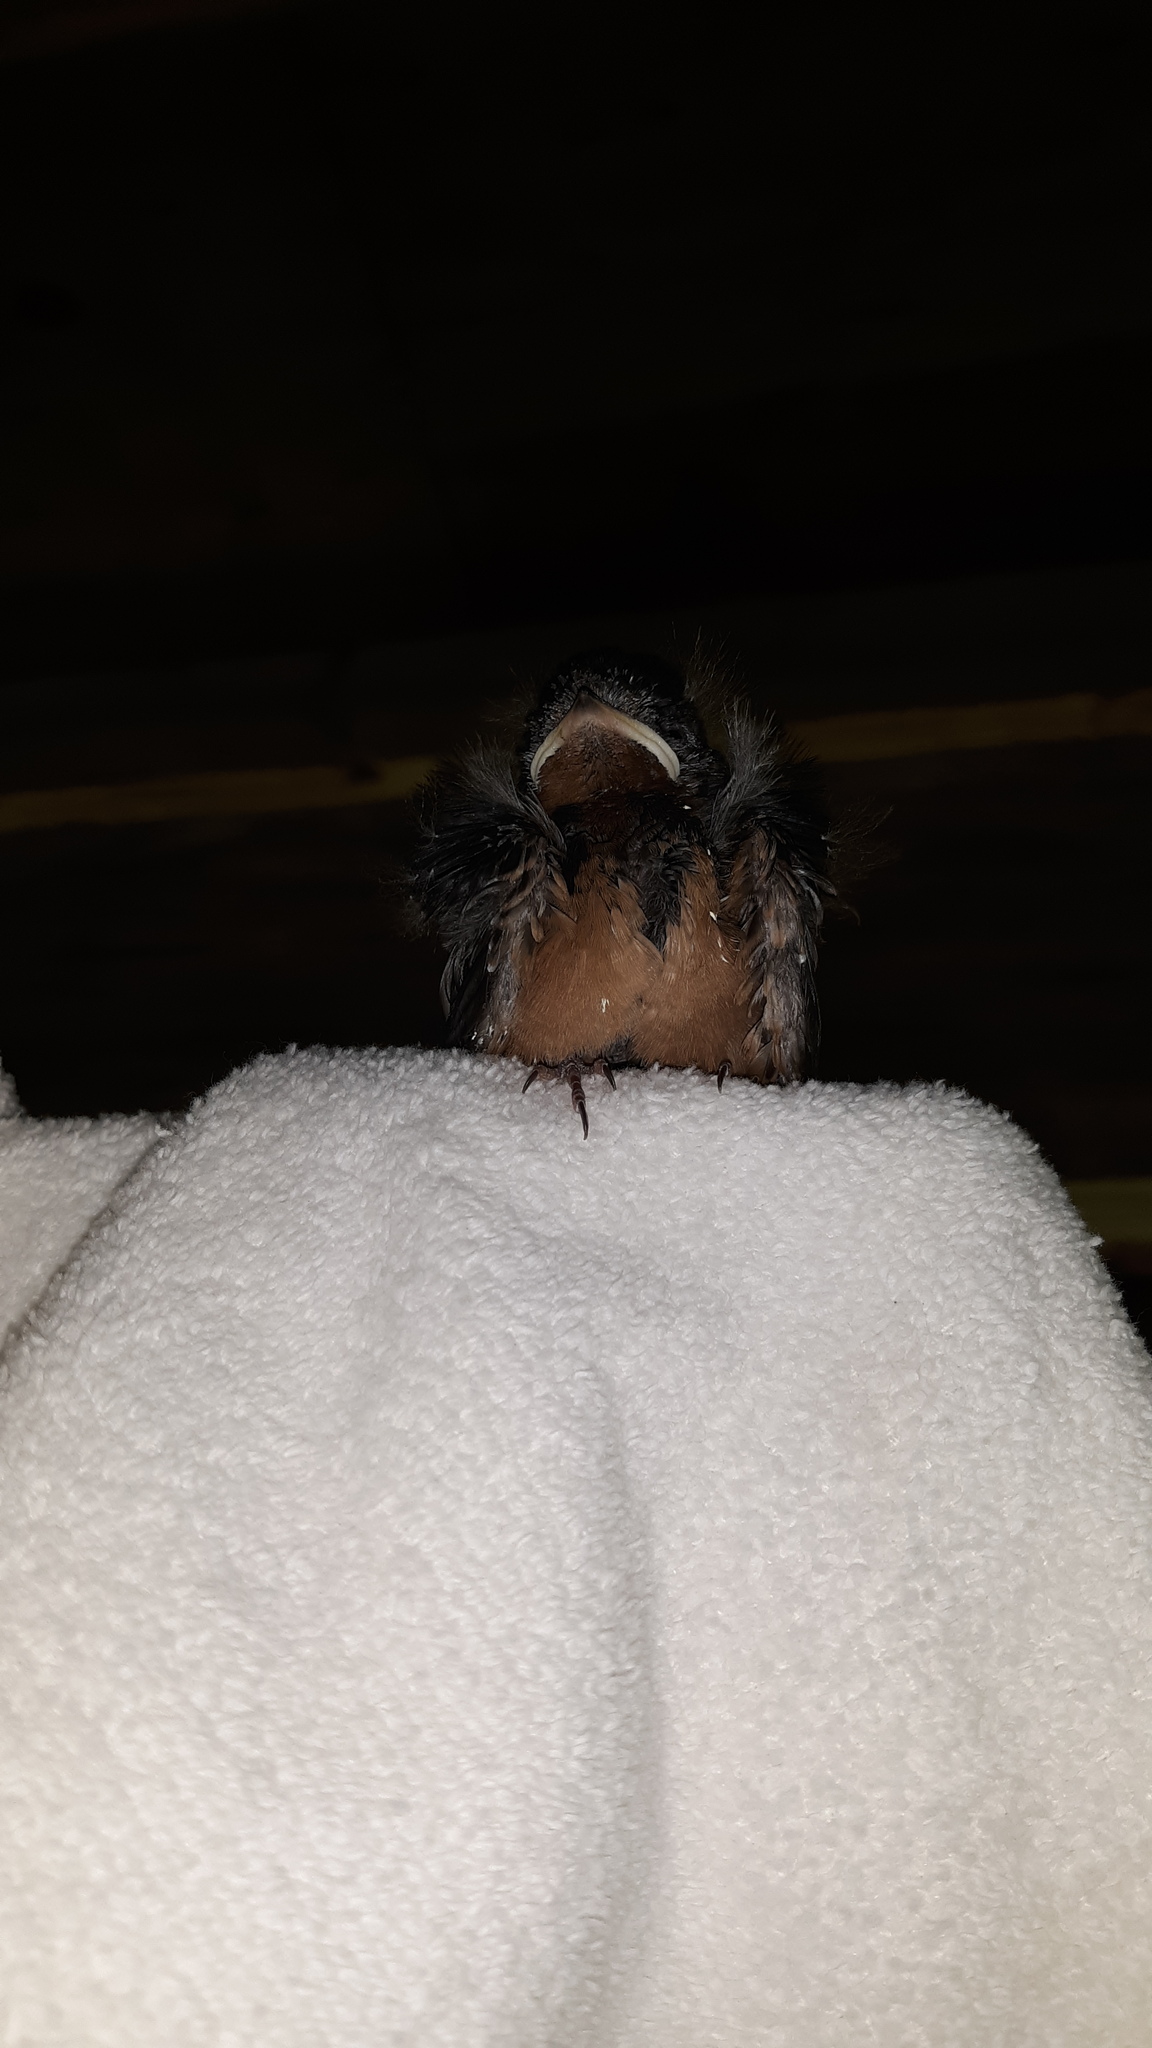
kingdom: Animalia
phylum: Chordata
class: Aves
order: Passeriformes
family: Hirundinidae
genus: Hirundo
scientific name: Hirundo rustica
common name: Barn swallow
